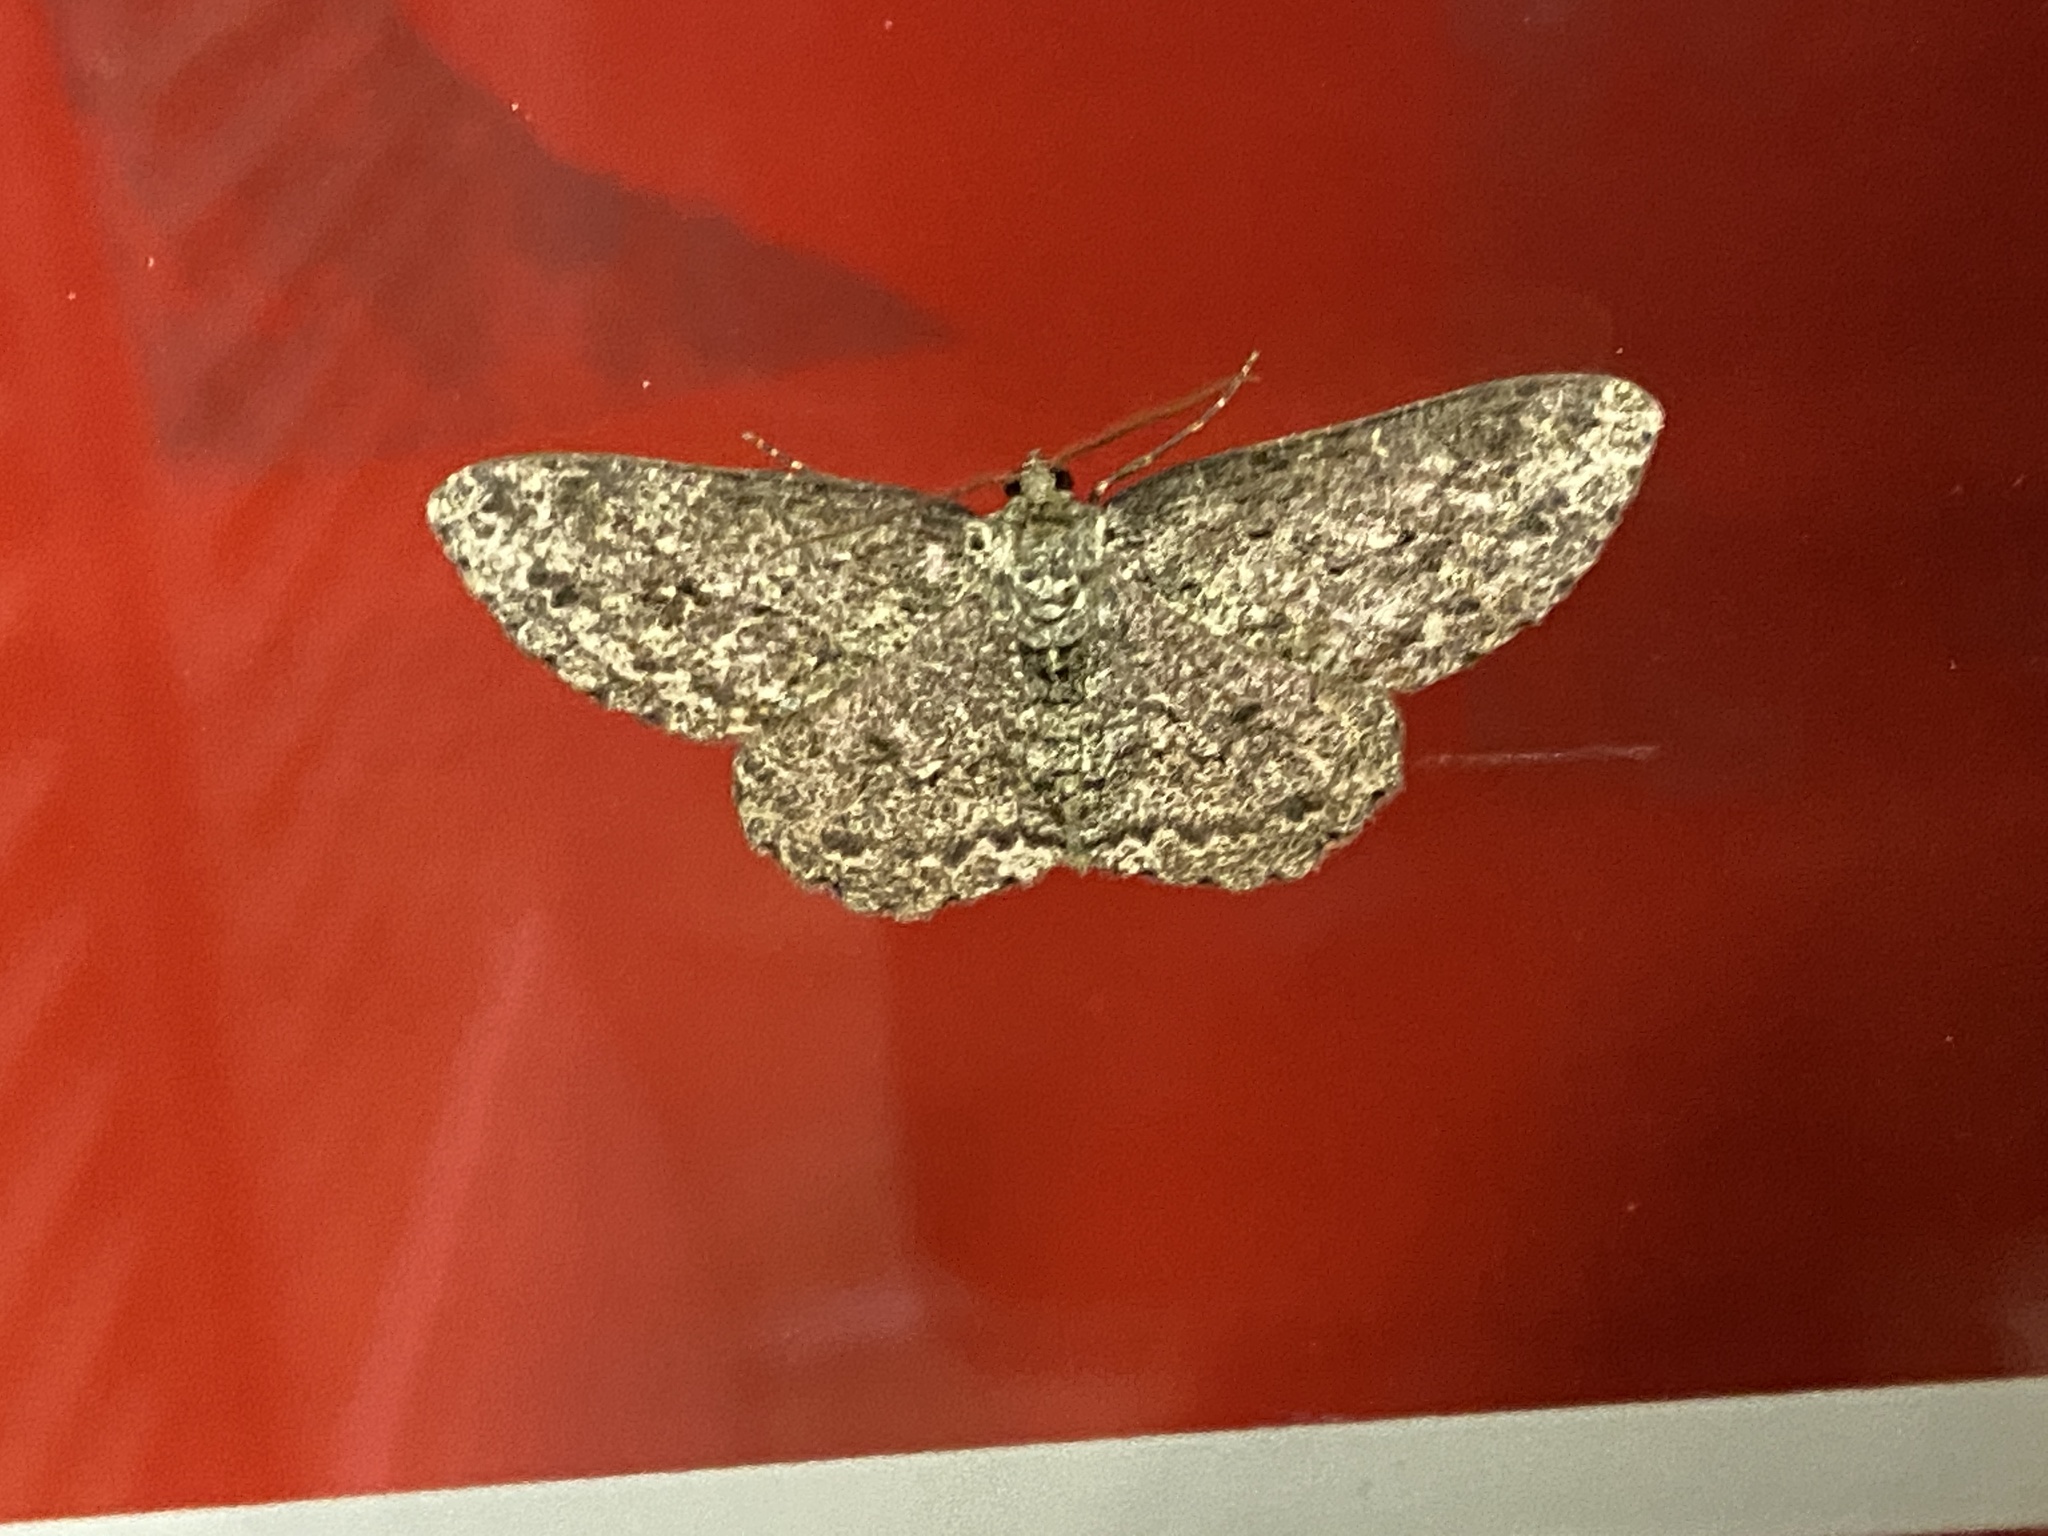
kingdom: Animalia
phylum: Arthropoda
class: Insecta
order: Lepidoptera
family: Geometridae
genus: Hypomecis
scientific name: Hypomecis roboraria
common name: Great oak beauty
